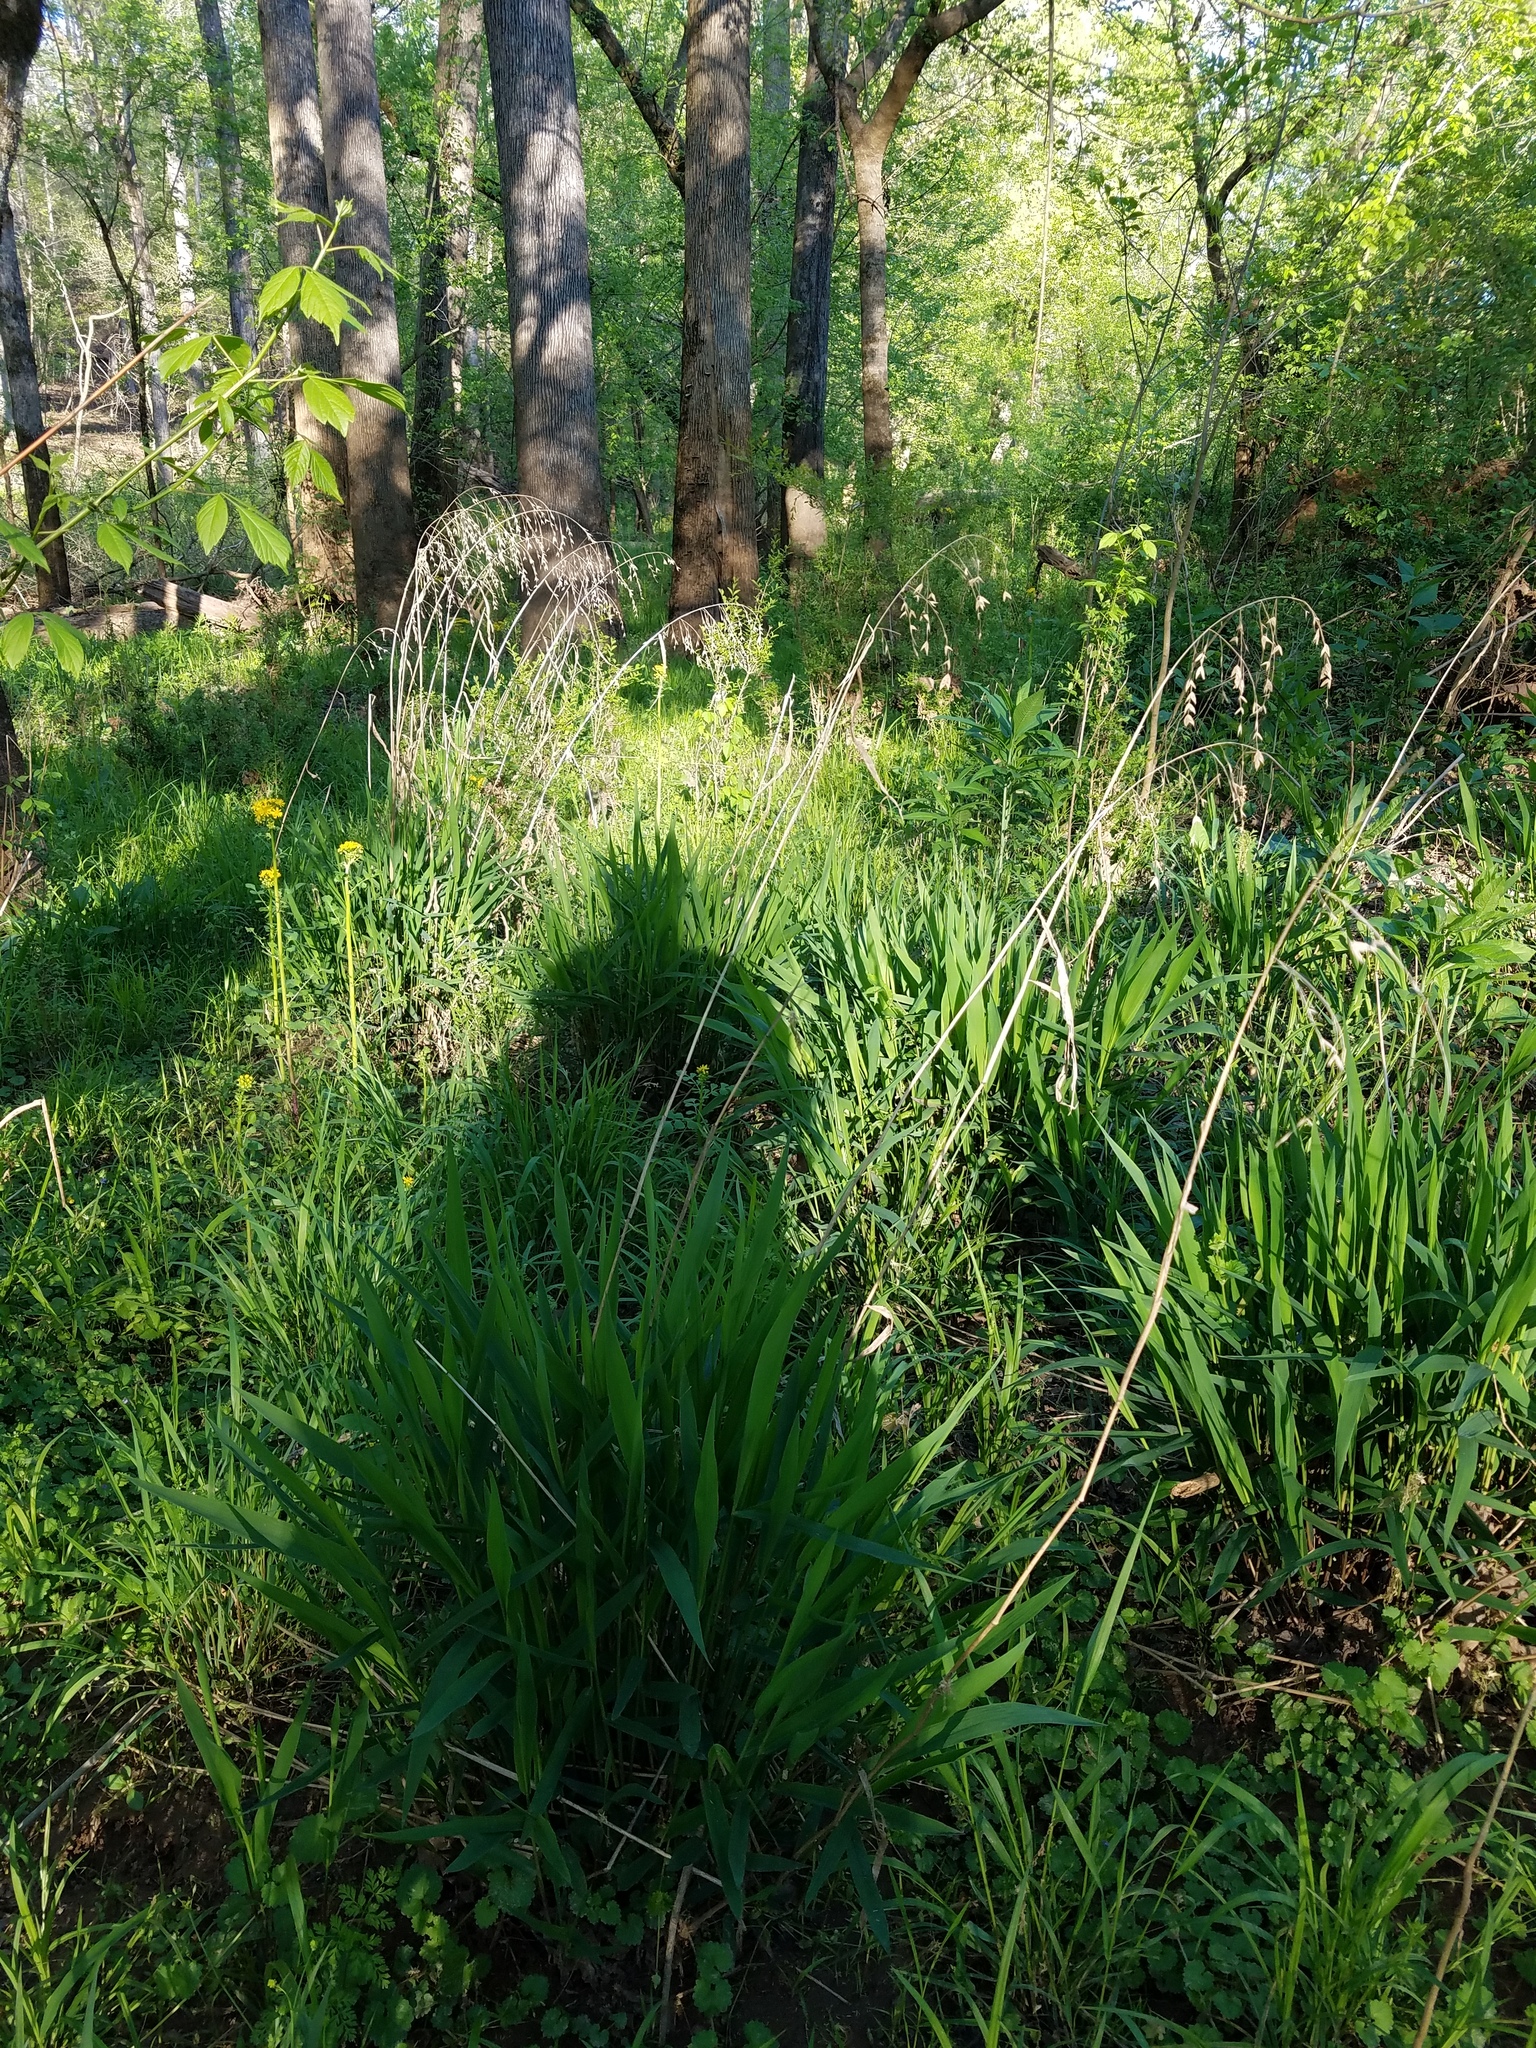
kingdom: Plantae
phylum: Tracheophyta
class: Liliopsida
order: Poales
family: Poaceae
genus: Chasmanthium
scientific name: Chasmanthium latifolium
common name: Broad-leaved chasmanthium
